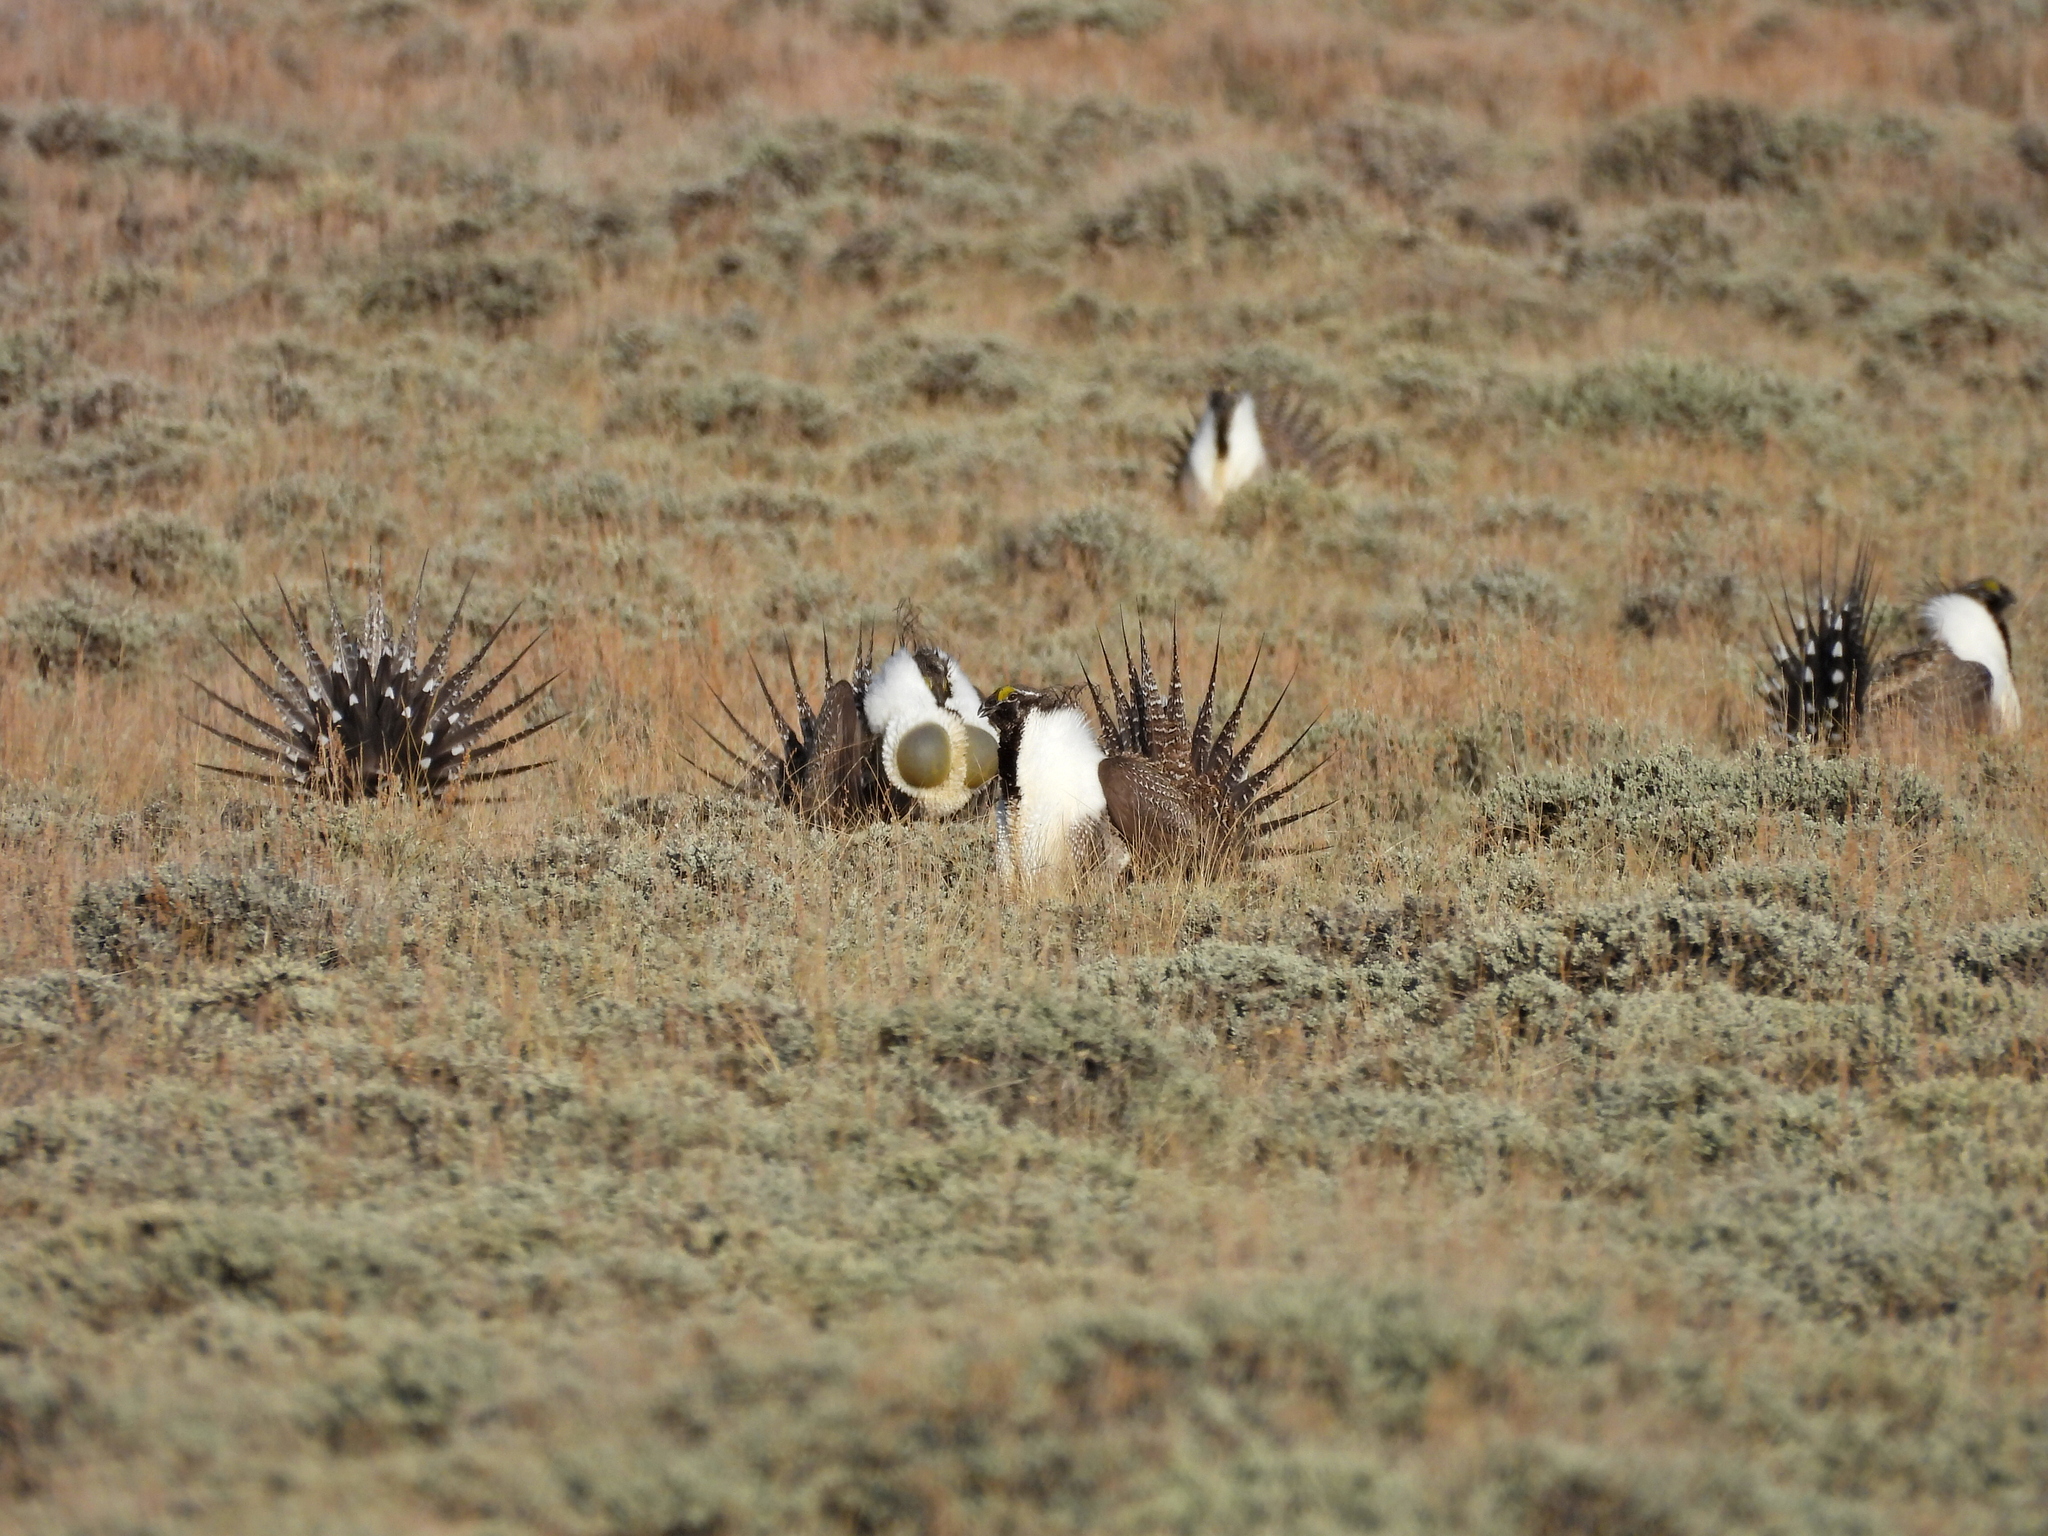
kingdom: Animalia
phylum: Chordata
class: Aves
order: Galliformes
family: Phasianidae
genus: Centrocercus
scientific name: Centrocercus urophasianus
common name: Sage grouse
